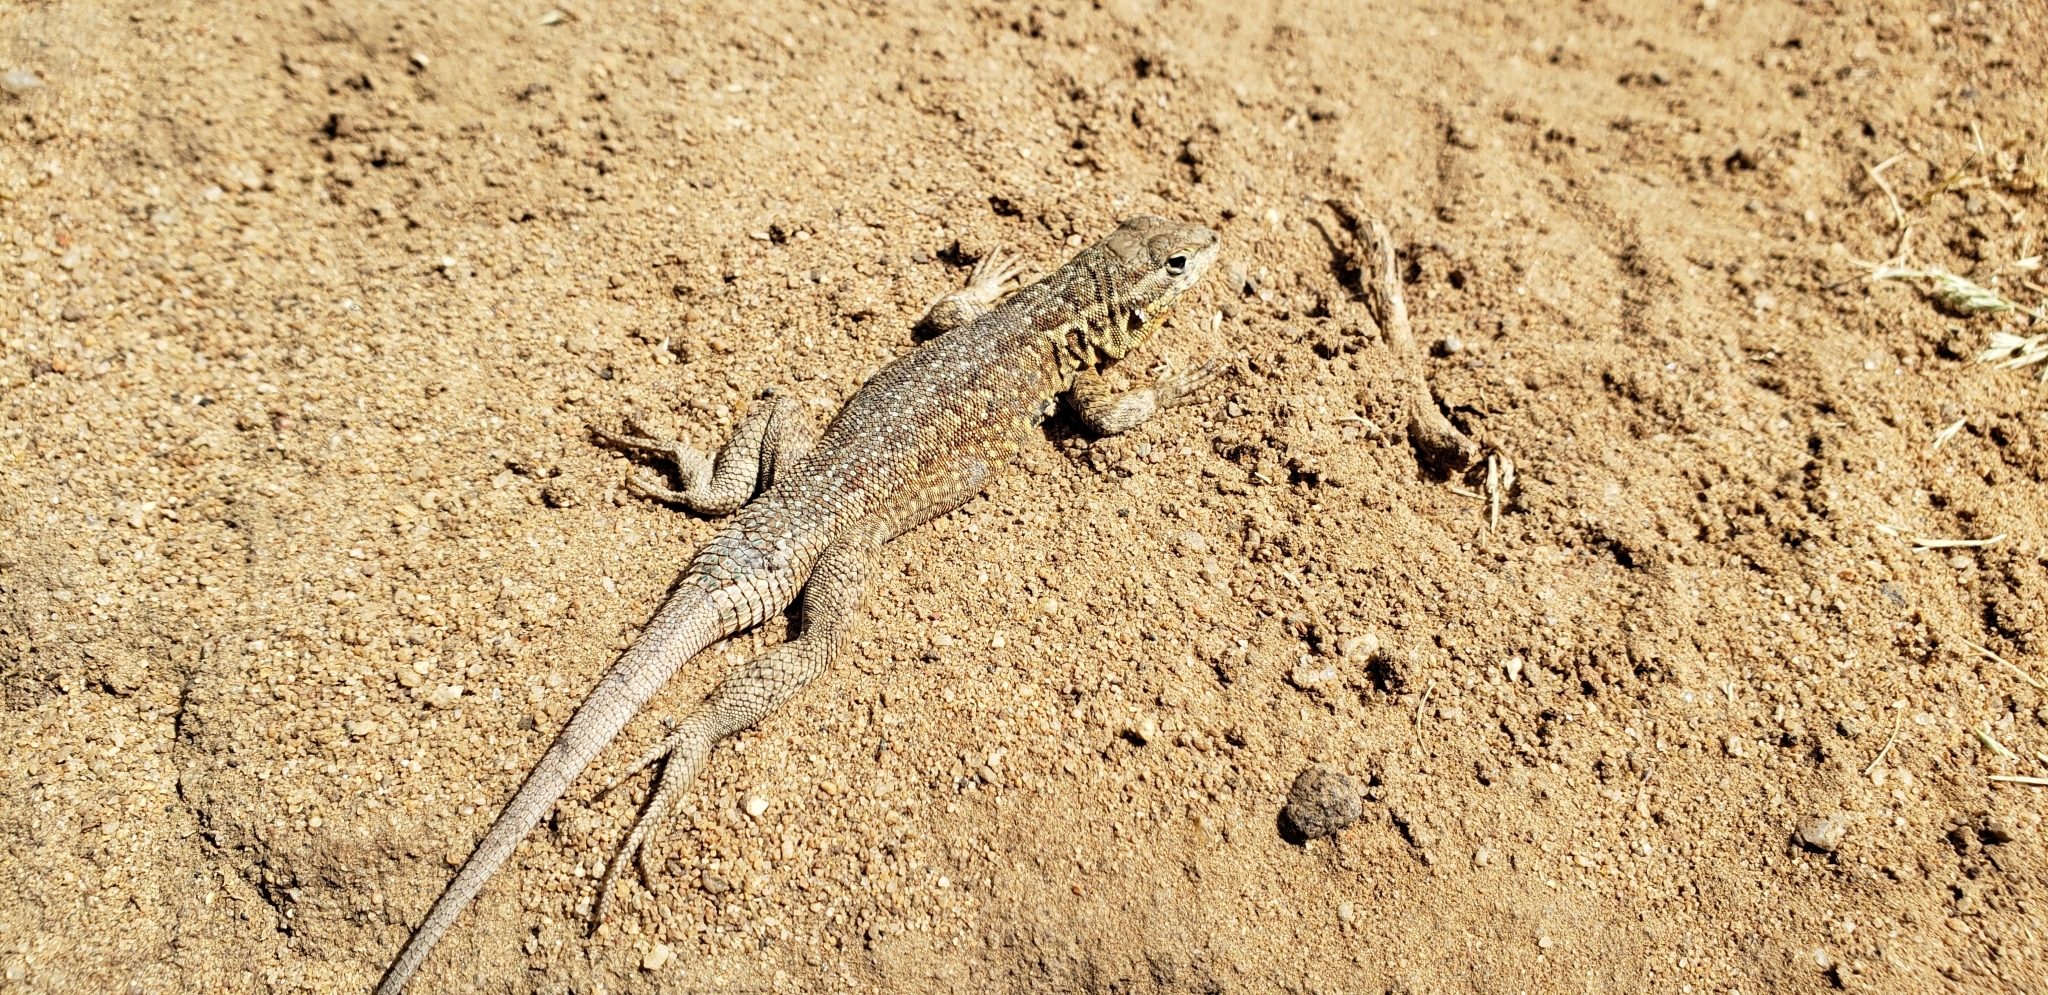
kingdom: Animalia
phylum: Chordata
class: Squamata
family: Phrynosomatidae
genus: Uta
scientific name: Uta stansburiana
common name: Side-blotched lizard
